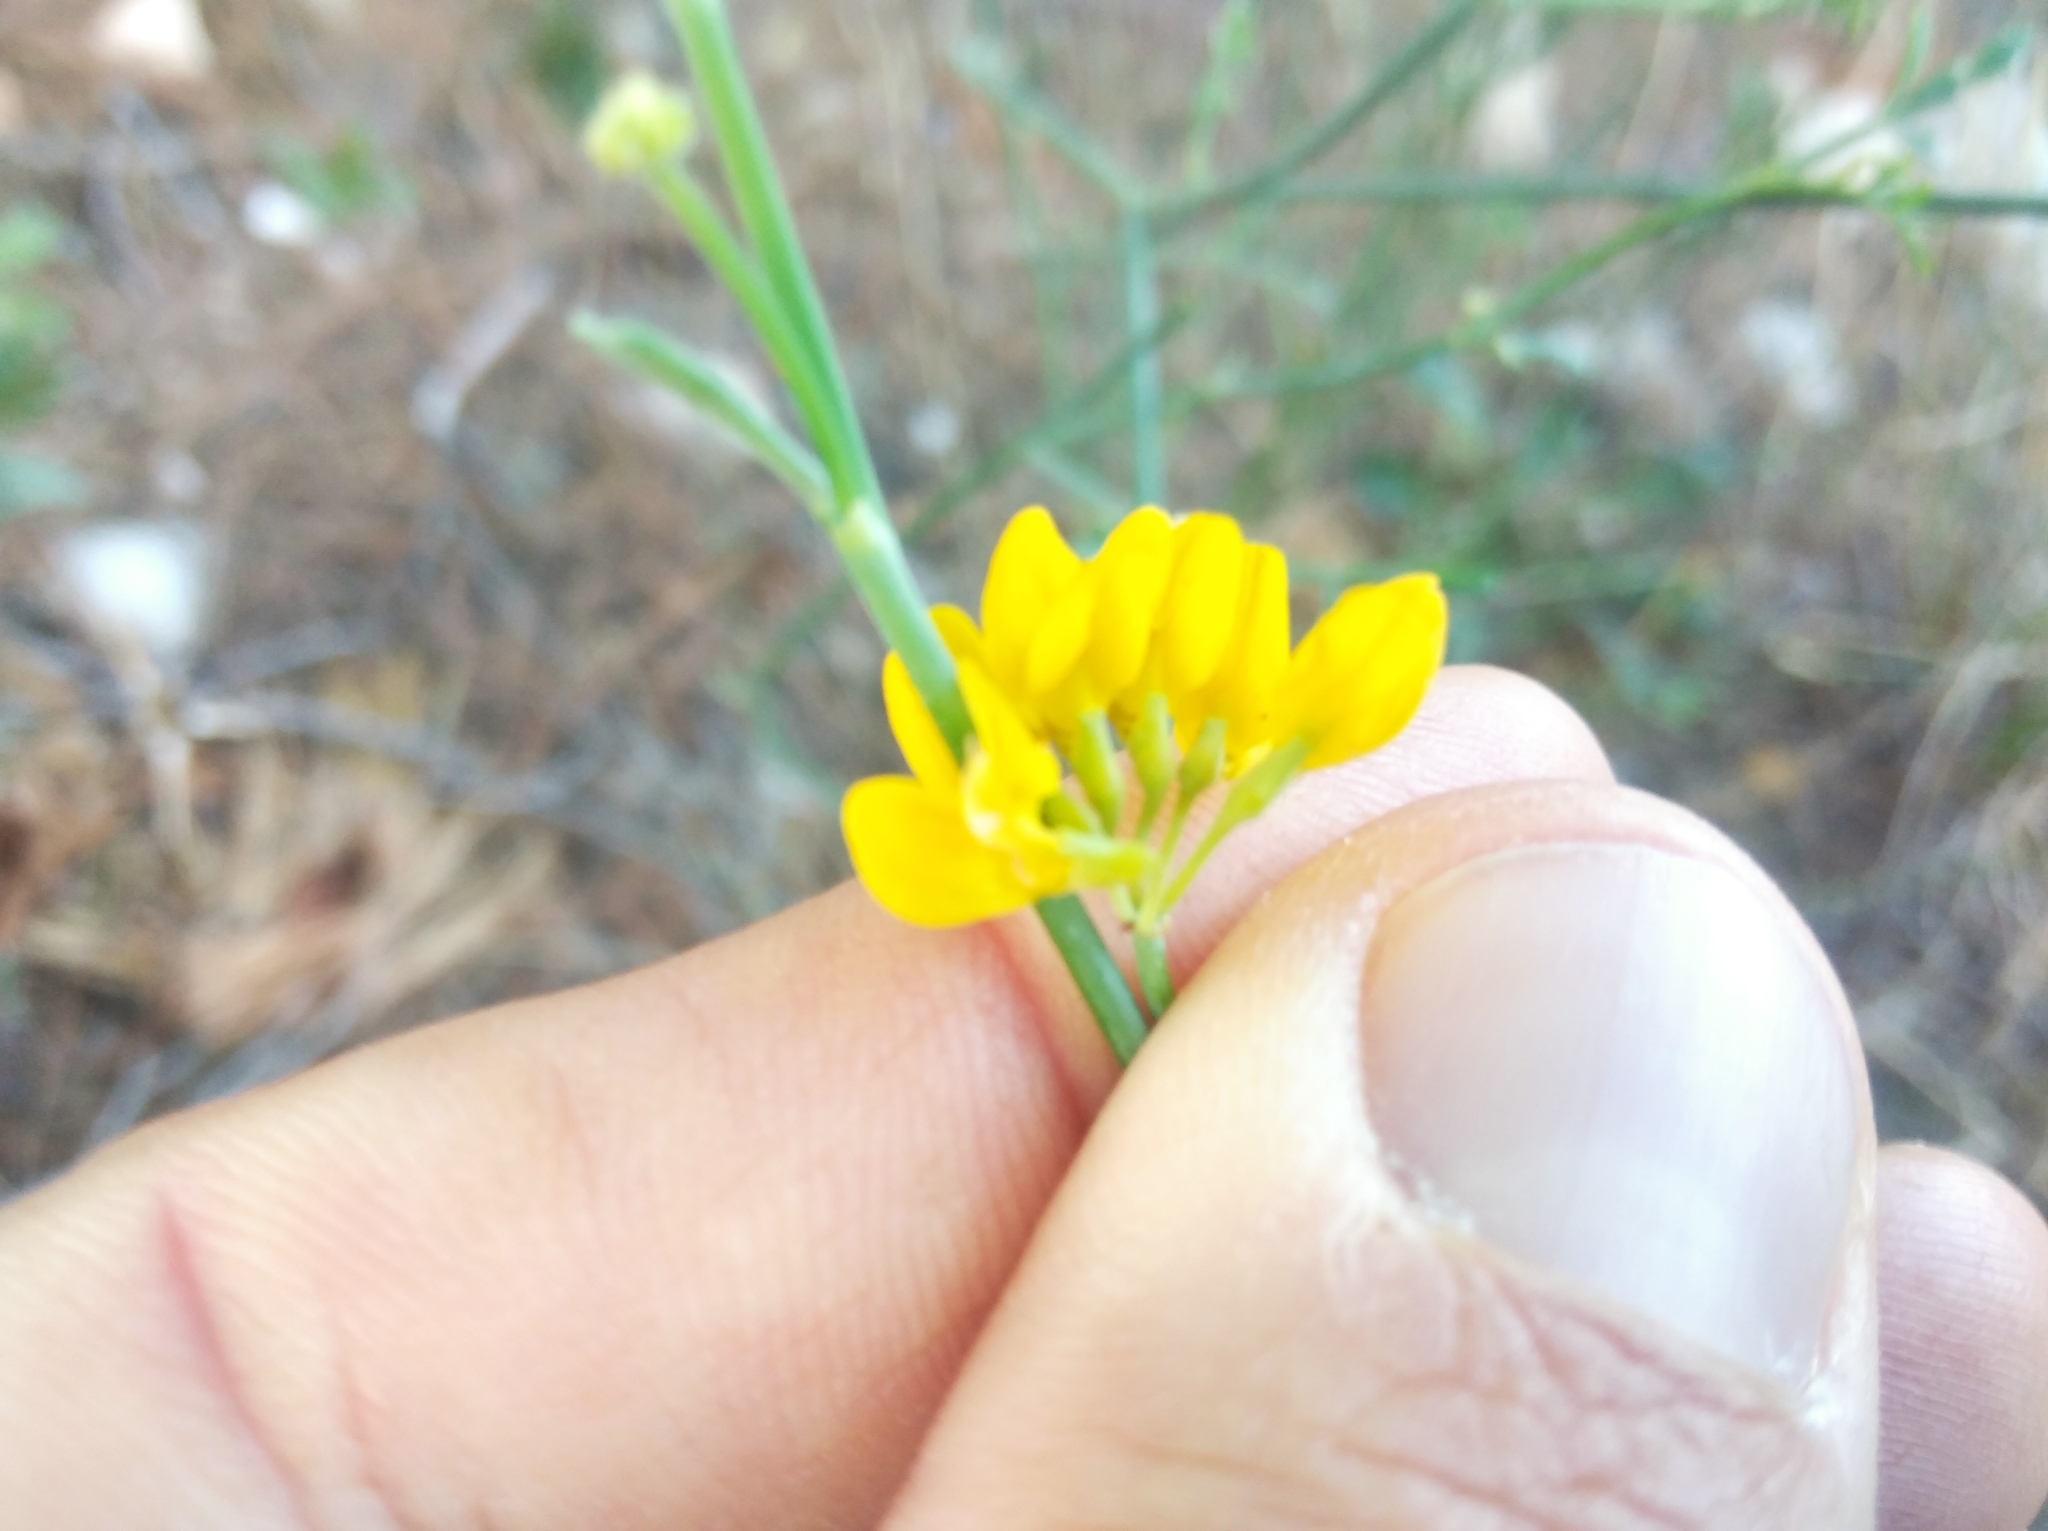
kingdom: Plantae
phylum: Tracheophyta
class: Magnoliopsida
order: Fabales
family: Fabaceae
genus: Coronilla
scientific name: Coronilla juncea
